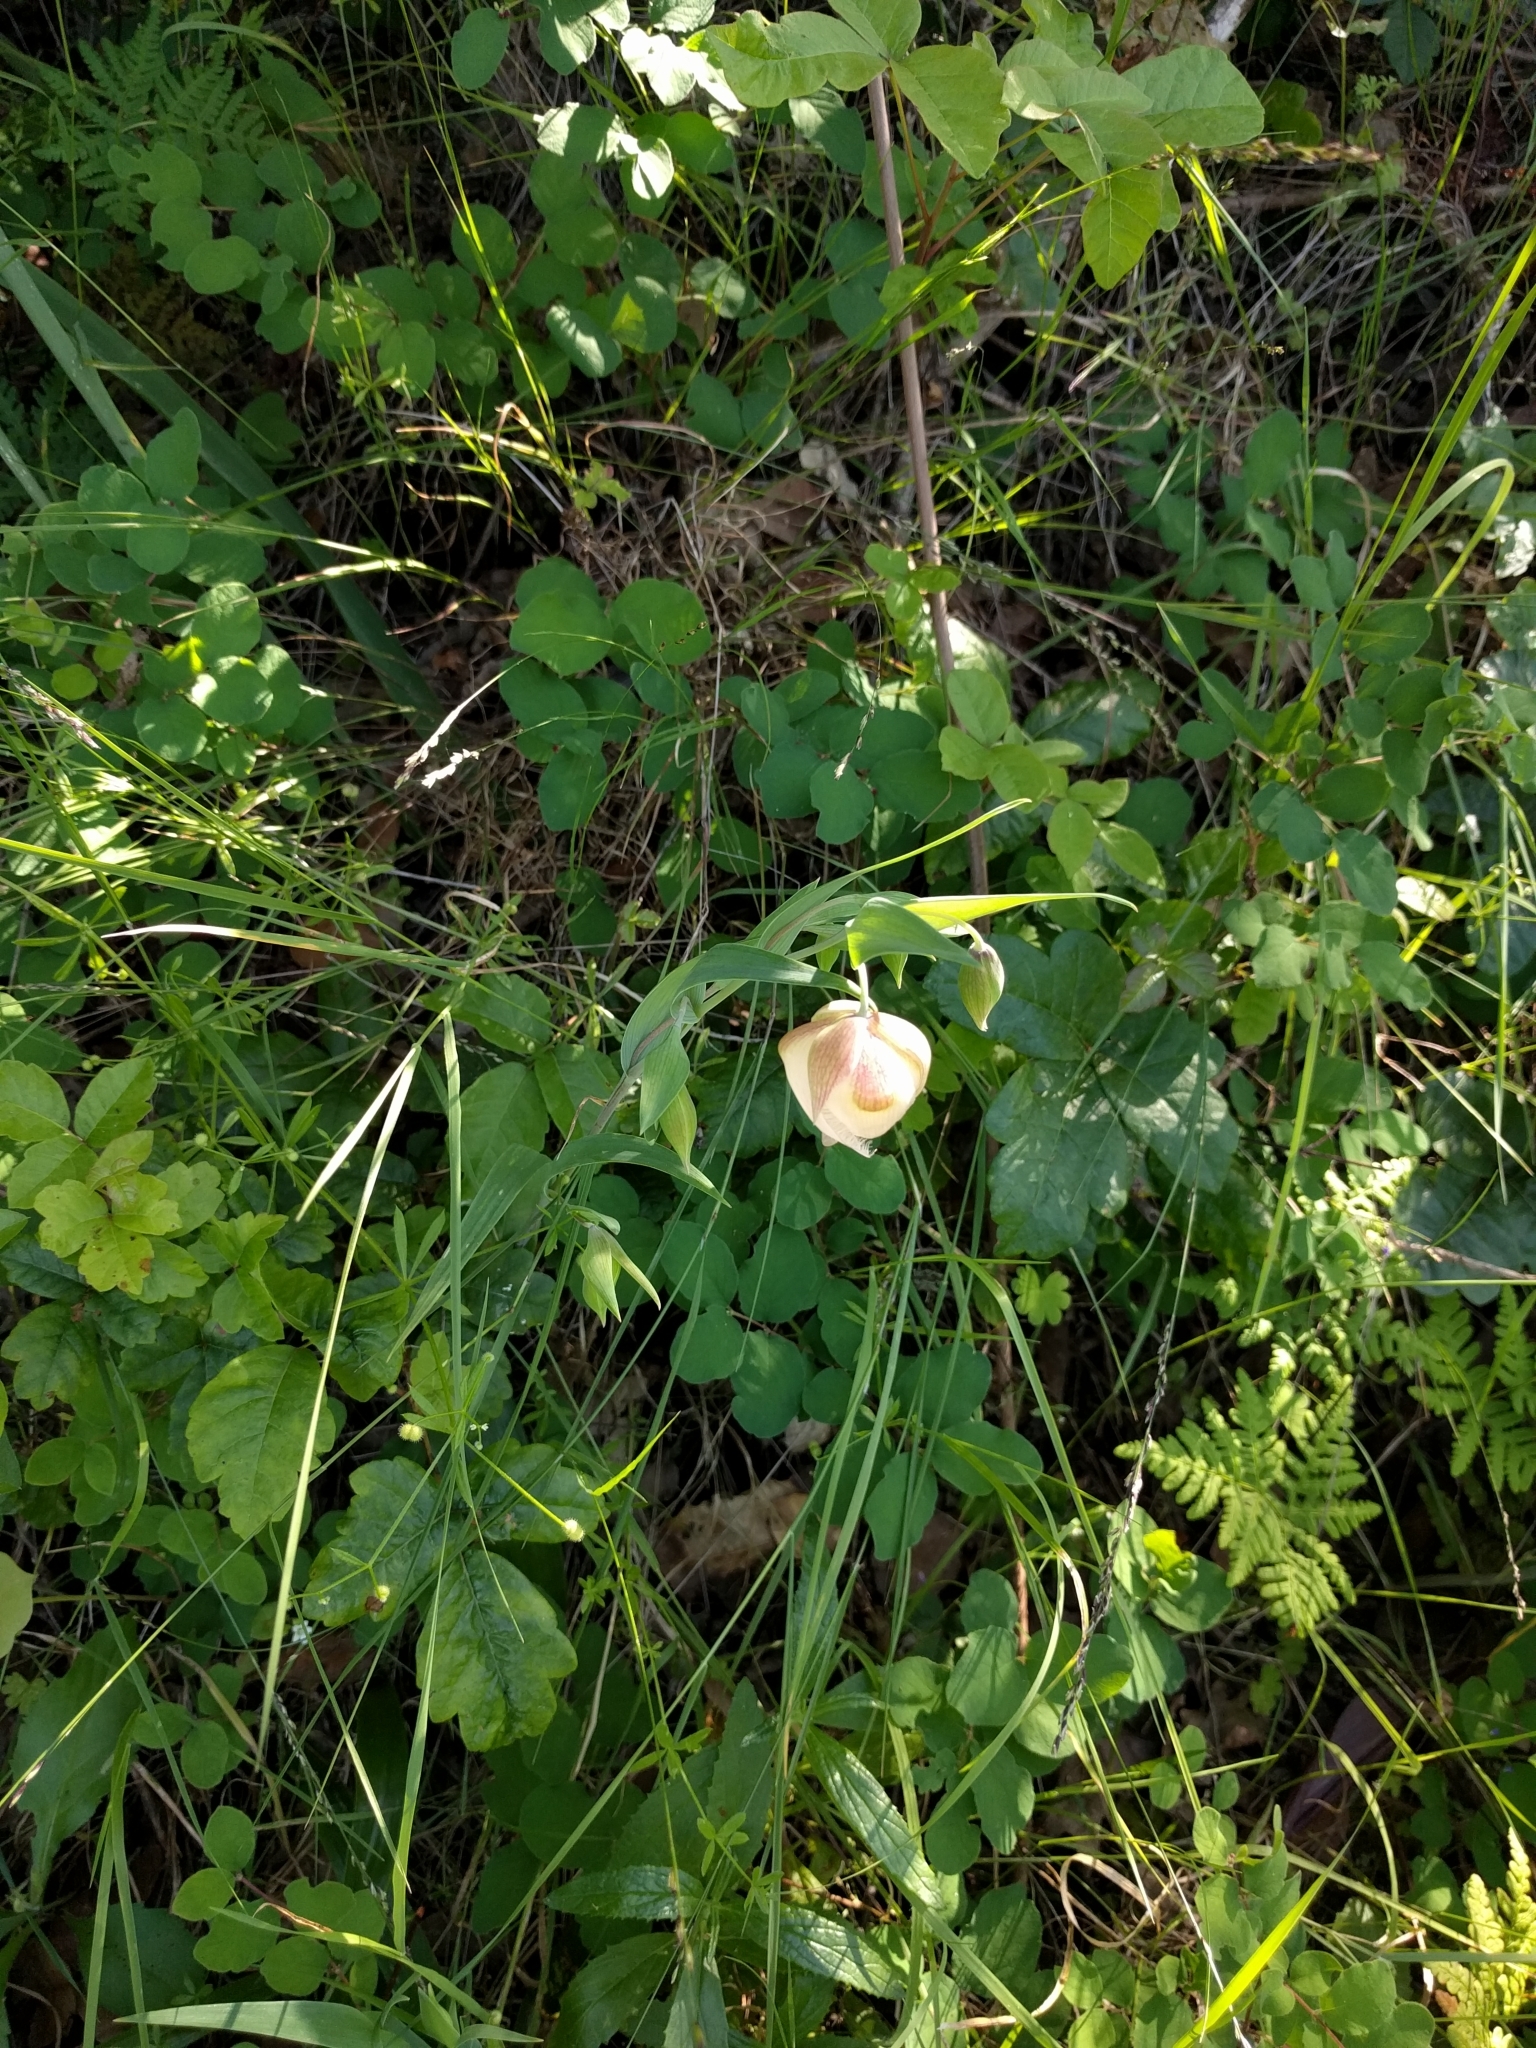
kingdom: Plantae
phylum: Tracheophyta
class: Liliopsida
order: Liliales
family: Liliaceae
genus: Calochortus
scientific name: Calochortus albus
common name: Fairy-lantern
